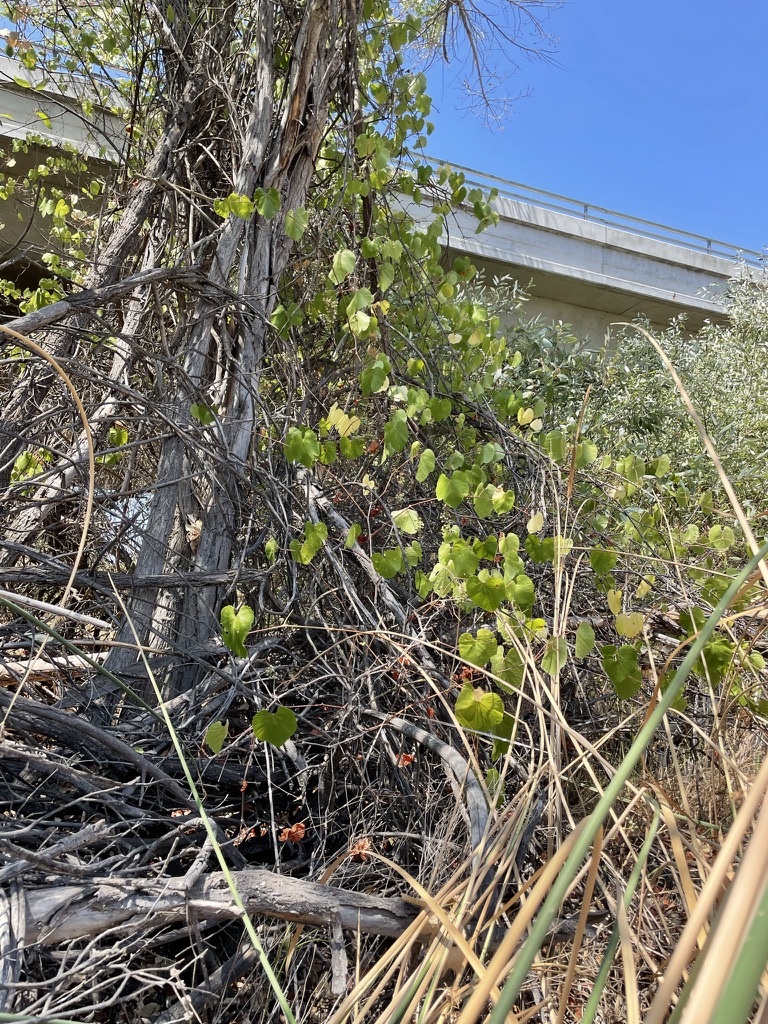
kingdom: Plantae
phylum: Tracheophyta
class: Magnoliopsida
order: Vitales
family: Vitaceae
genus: Vitis
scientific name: Vitis californica
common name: California wild grape
